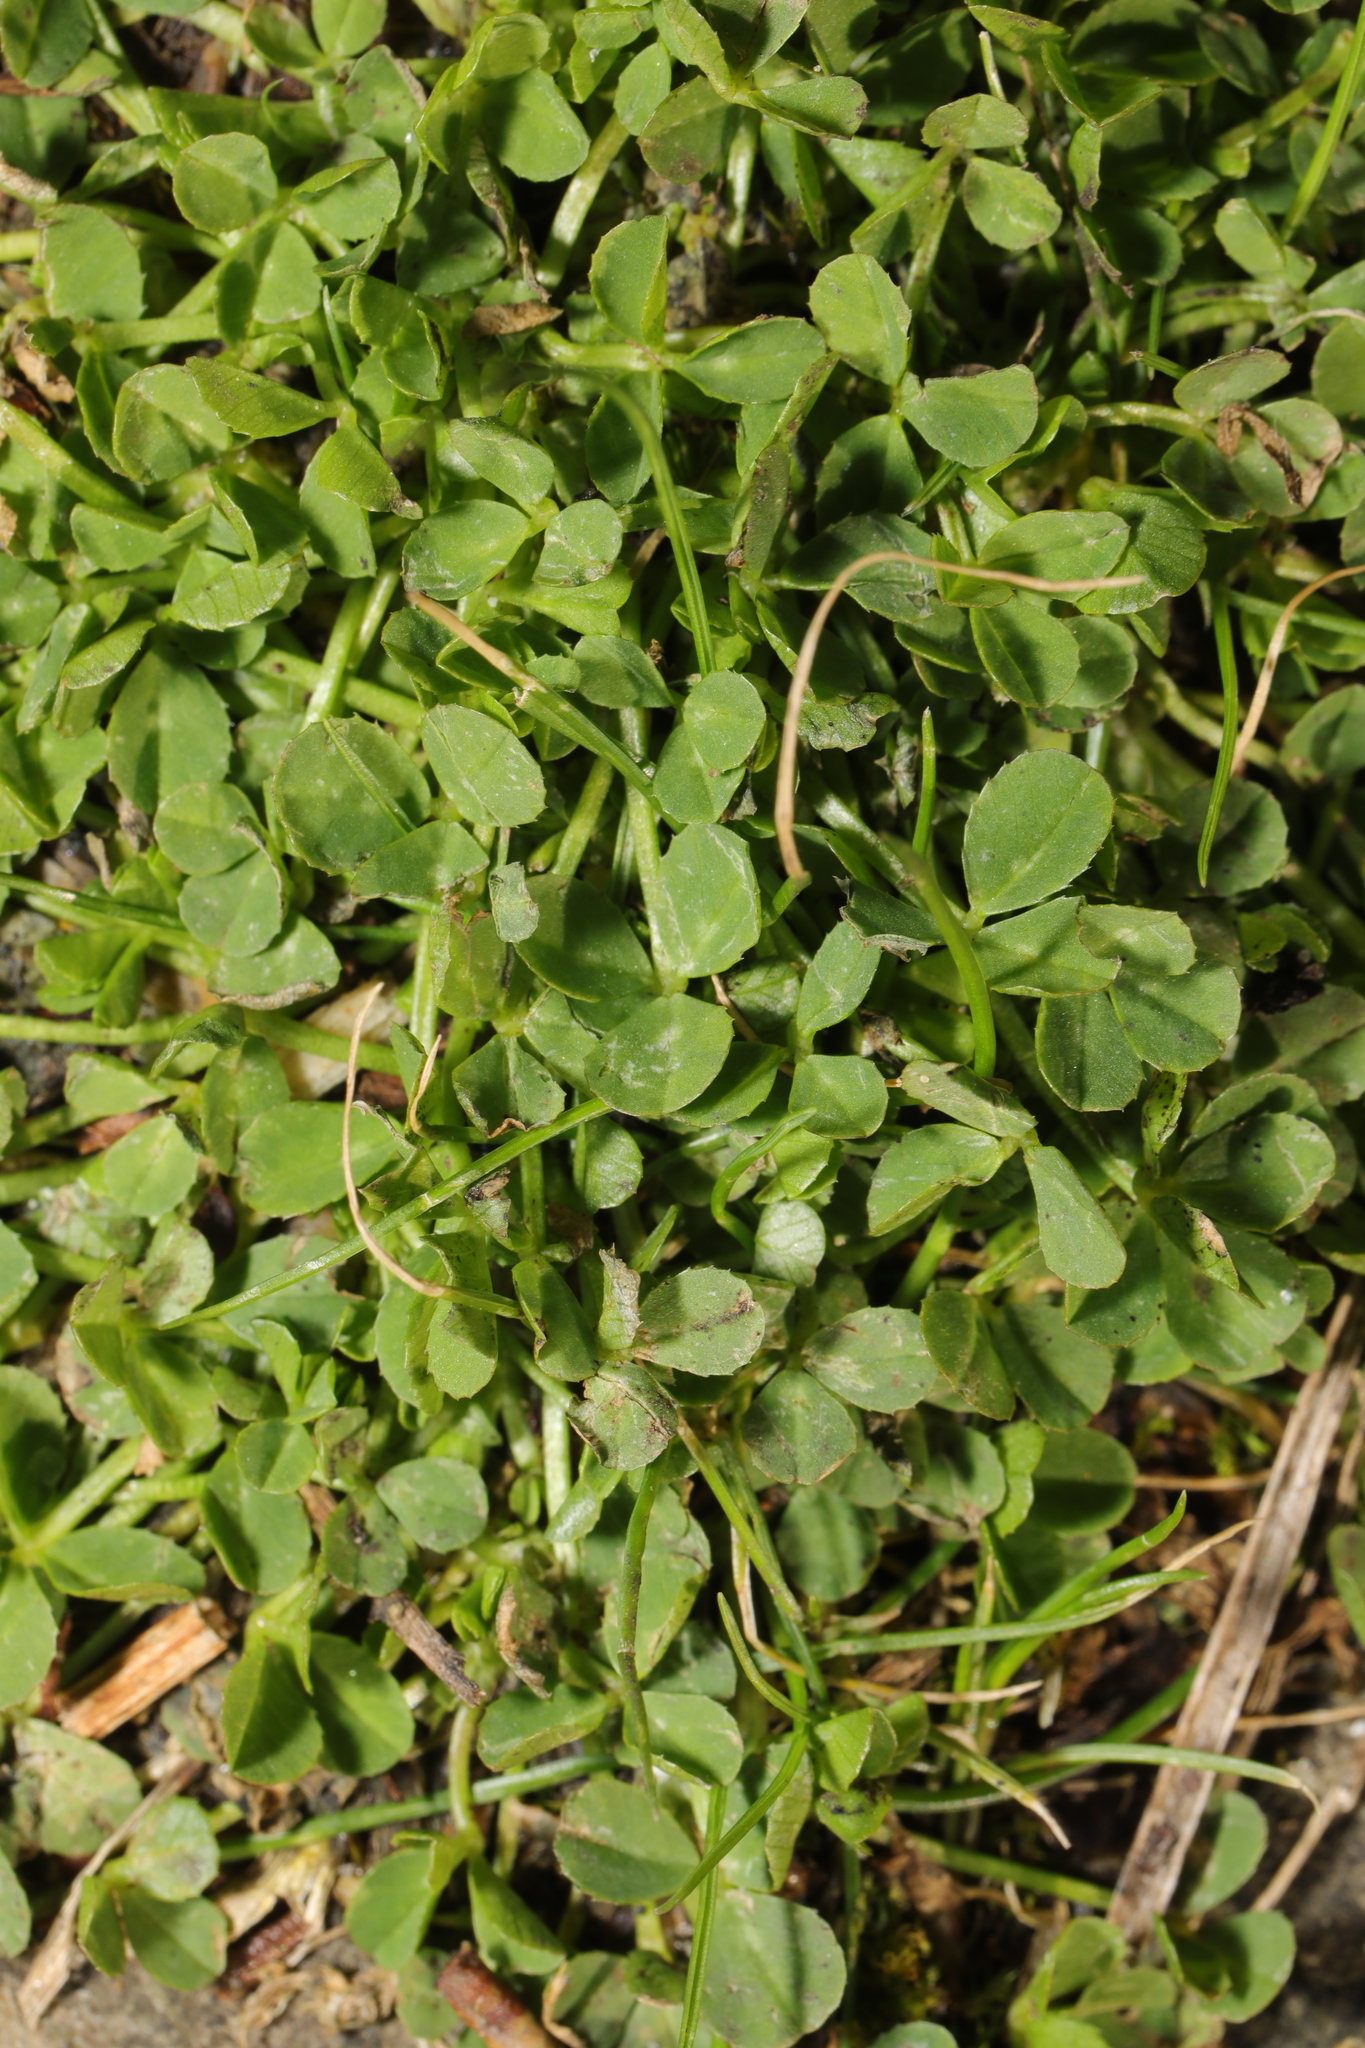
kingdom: Plantae
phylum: Tracheophyta
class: Magnoliopsida
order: Fabales
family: Fabaceae
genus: Trifolium
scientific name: Trifolium repens
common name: White clover
